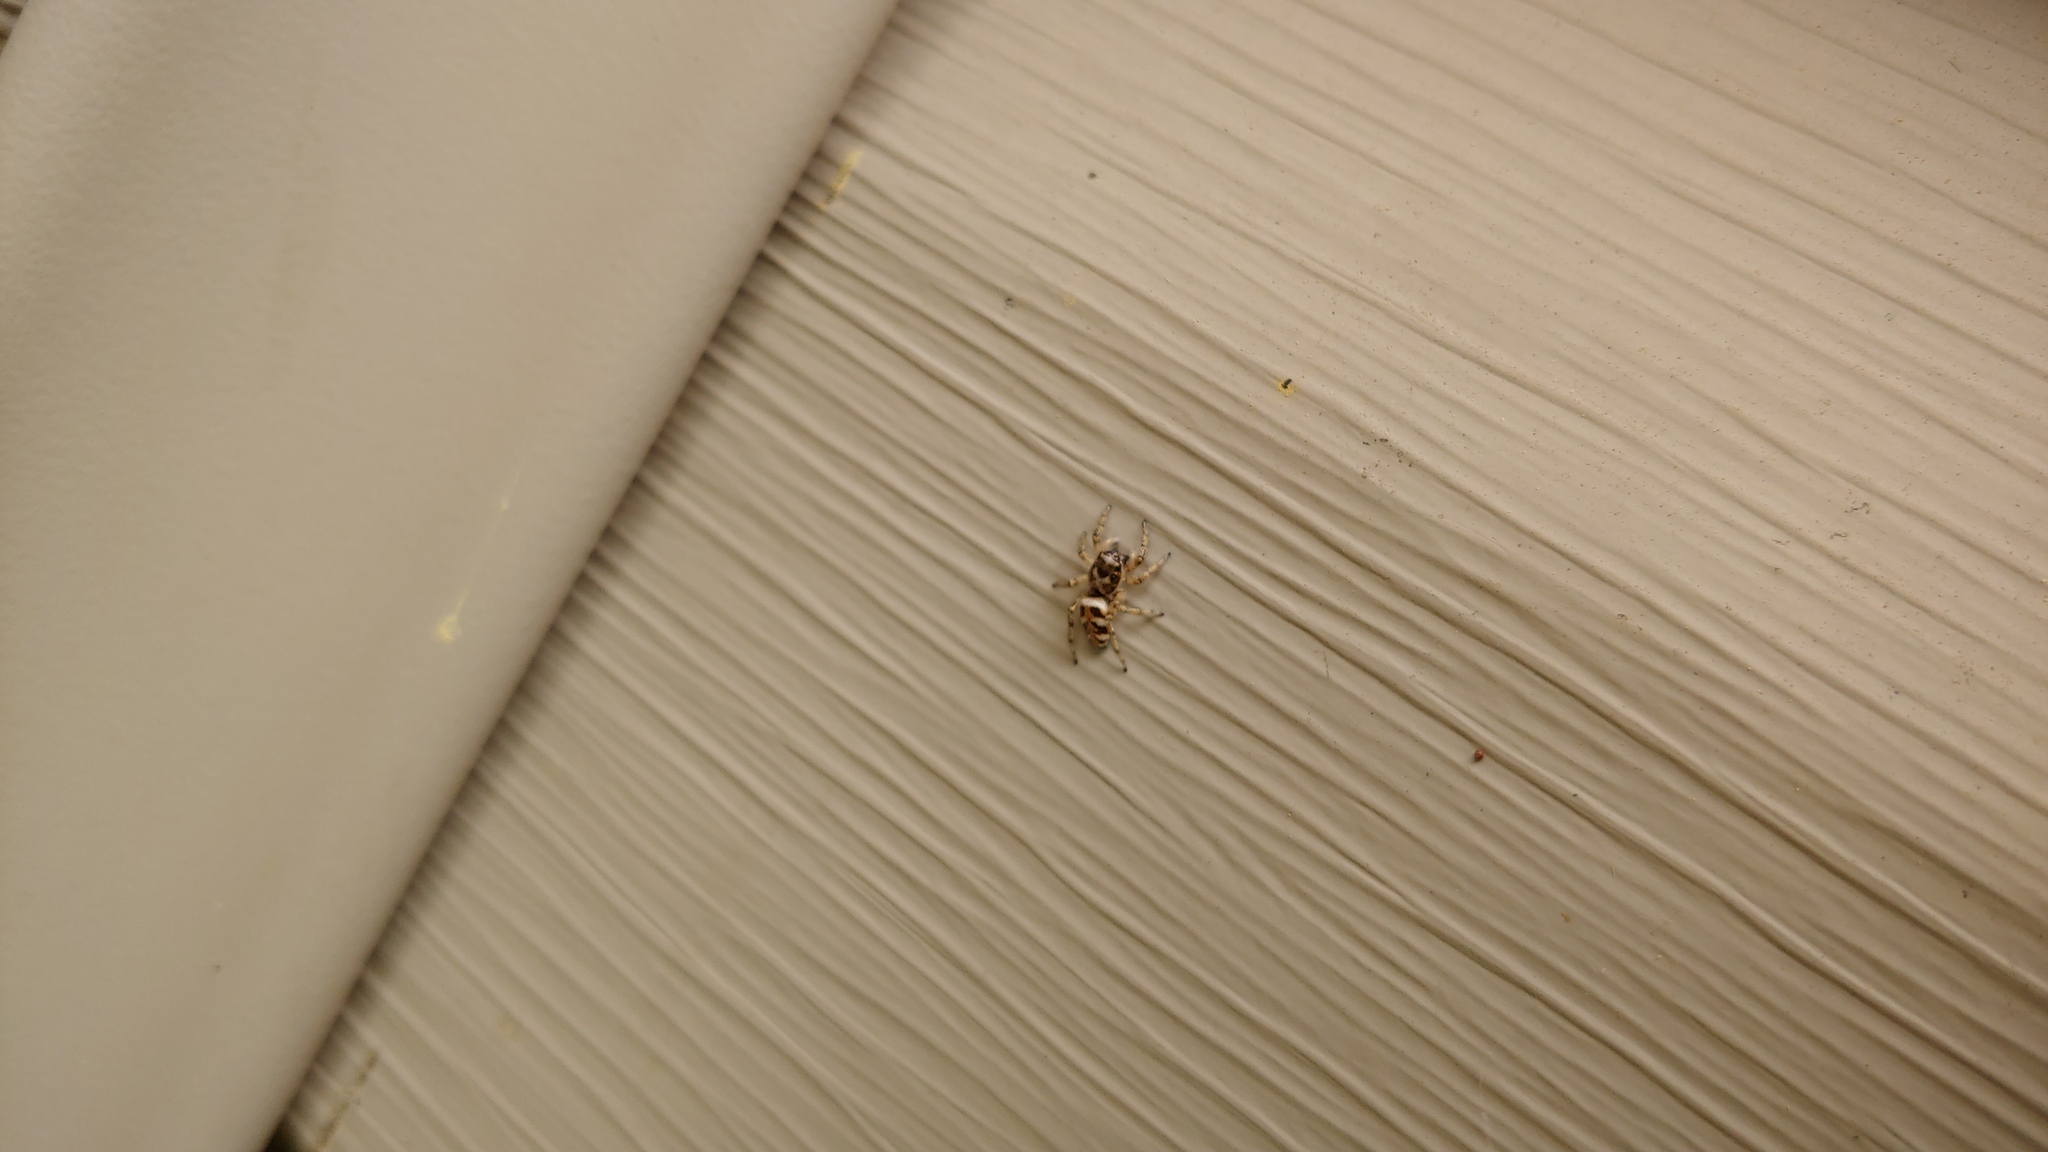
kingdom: Animalia
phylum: Arthropoda
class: Arachnida
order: Araneae
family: Salticidae
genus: Salticus
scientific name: Salticus scenicus
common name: Zebra jumper
